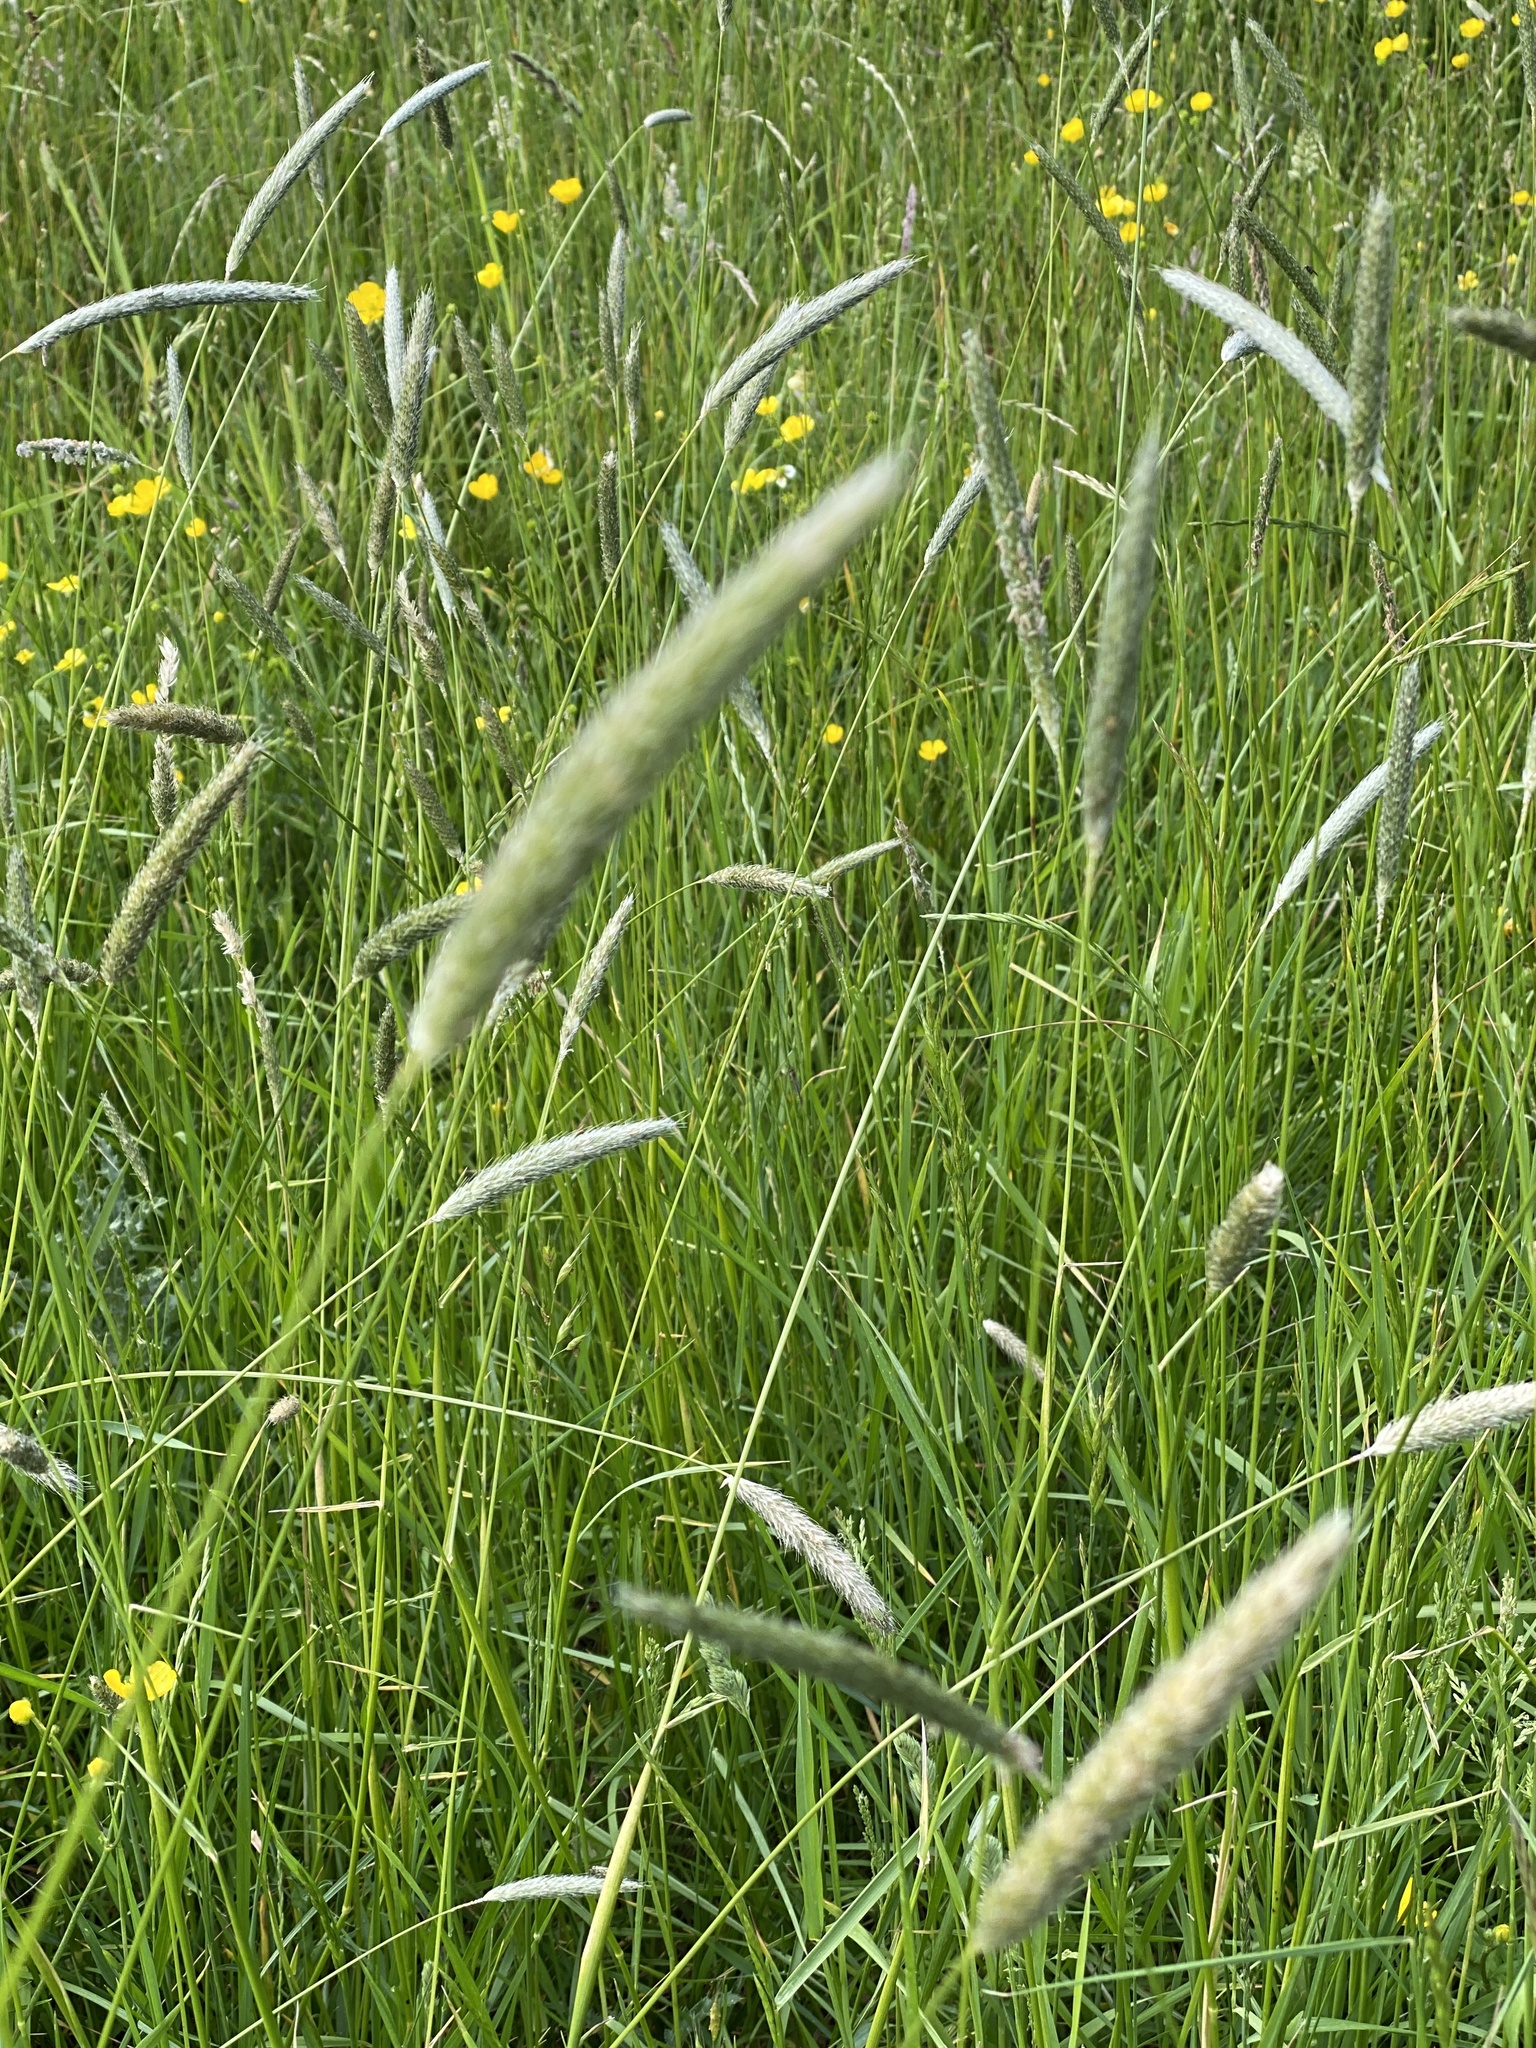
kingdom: Plantae
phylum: Tracheophyta
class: Liliopsida
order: Poales
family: Poaceae
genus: Alopecurus
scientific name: Alopecurus pratensis
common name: Meadow foxtail
